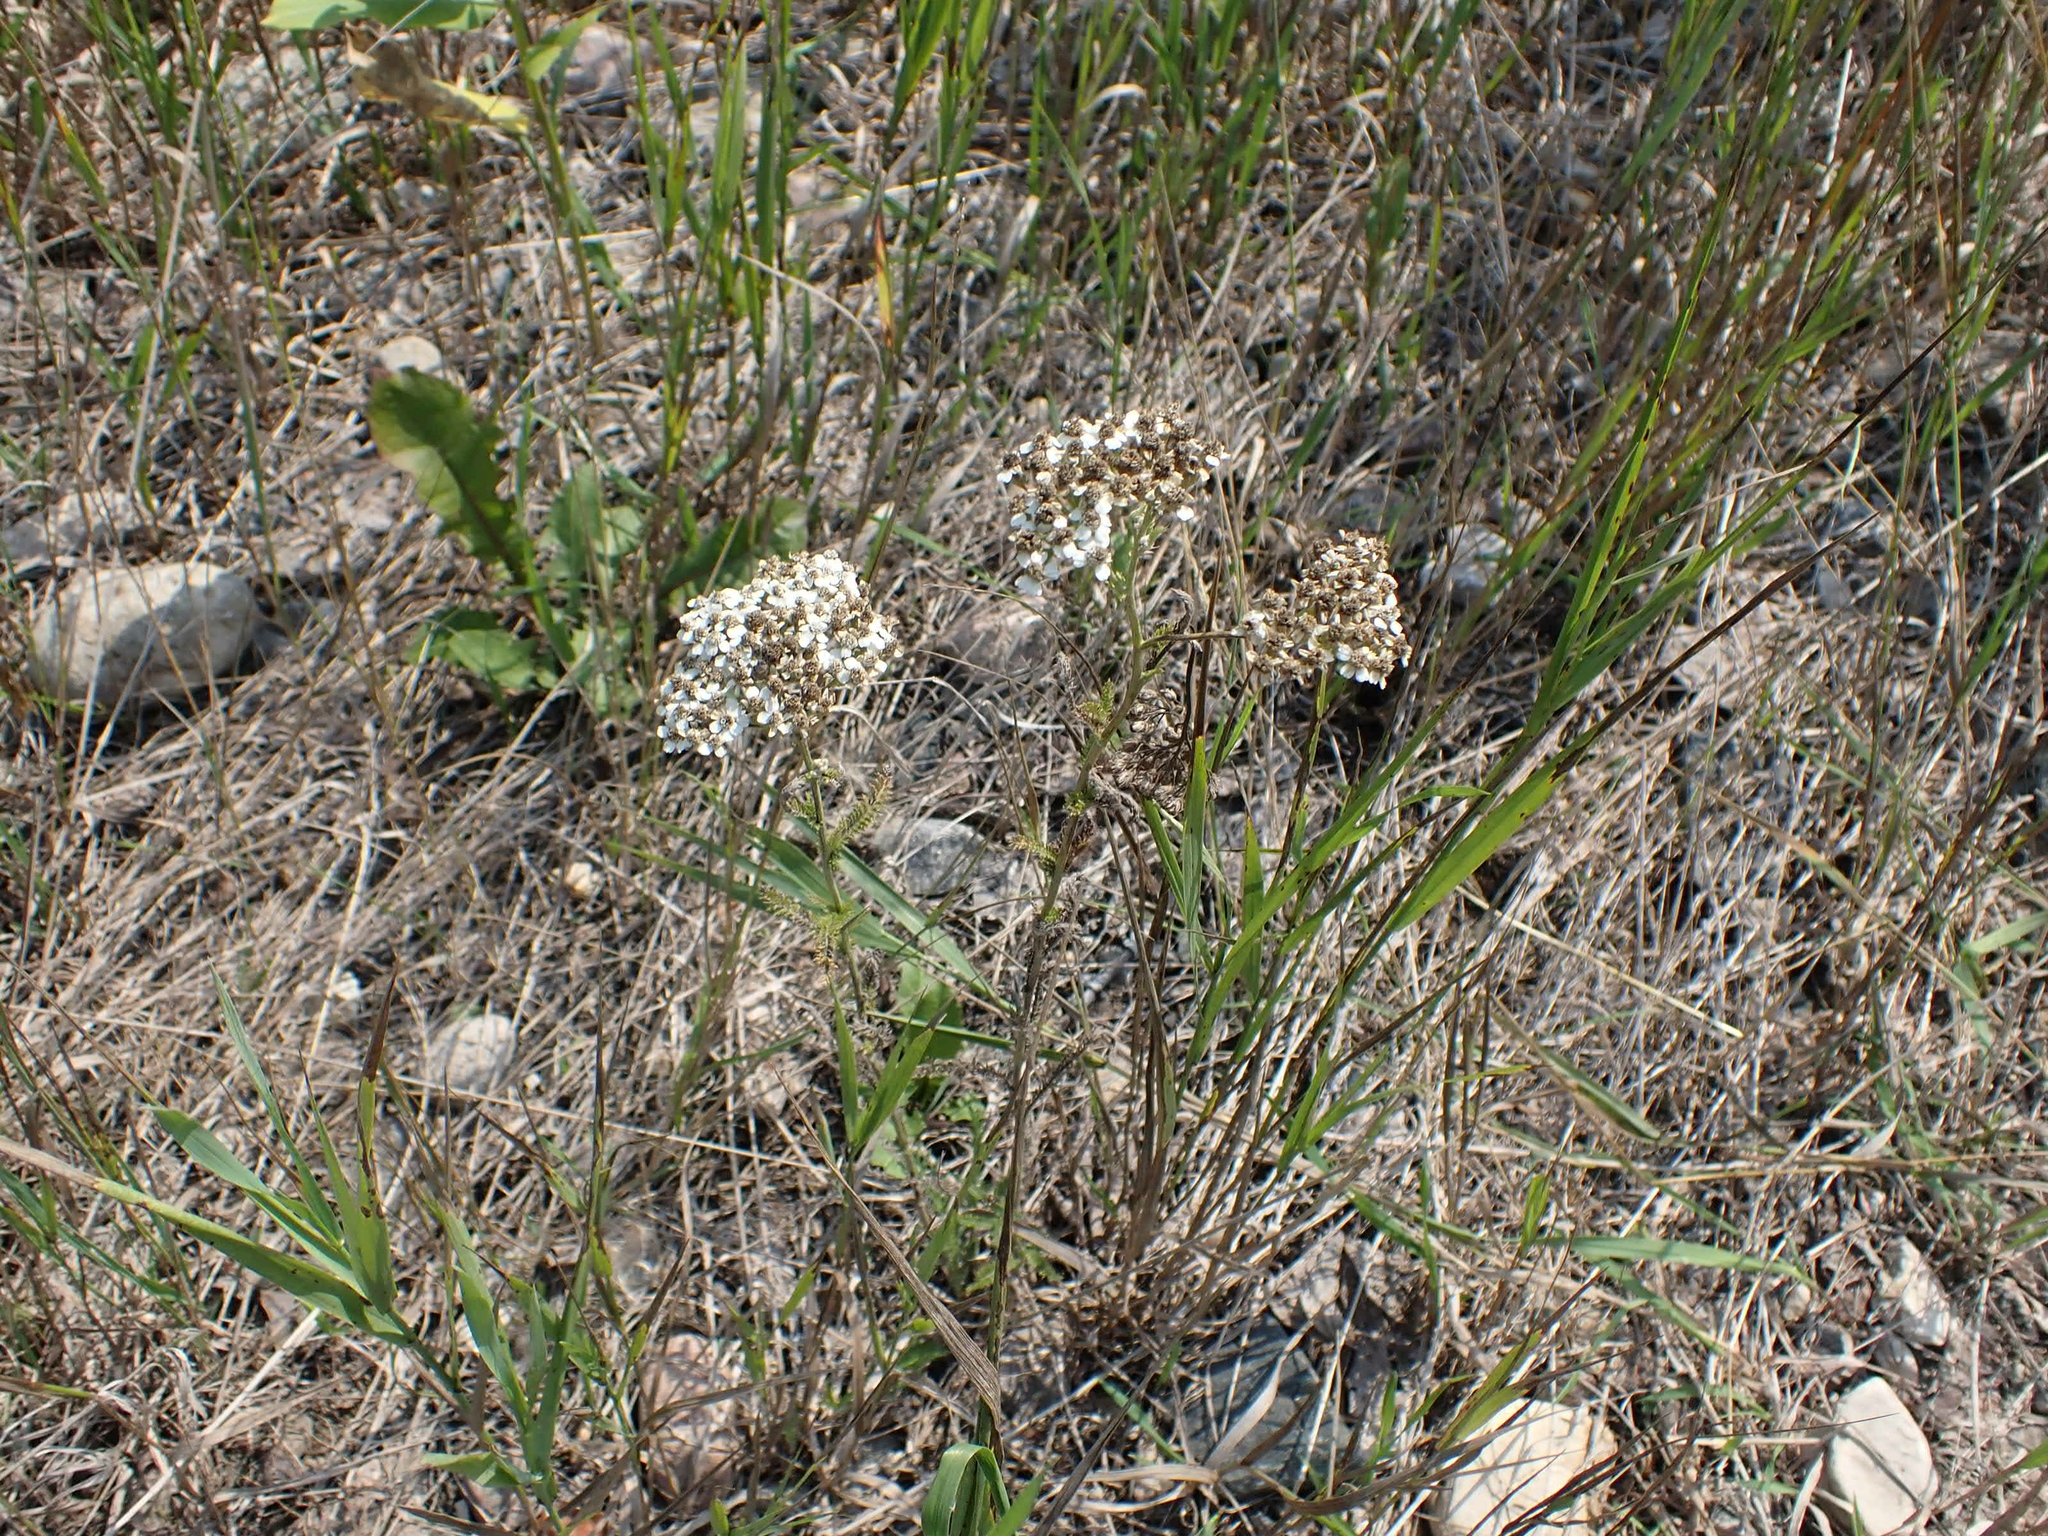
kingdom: Plantae
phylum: Tracheophyta
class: Magnoliopsida
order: Asterales
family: Asteraceae
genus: Achillea
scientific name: Achillea millefolium
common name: Yarrow
